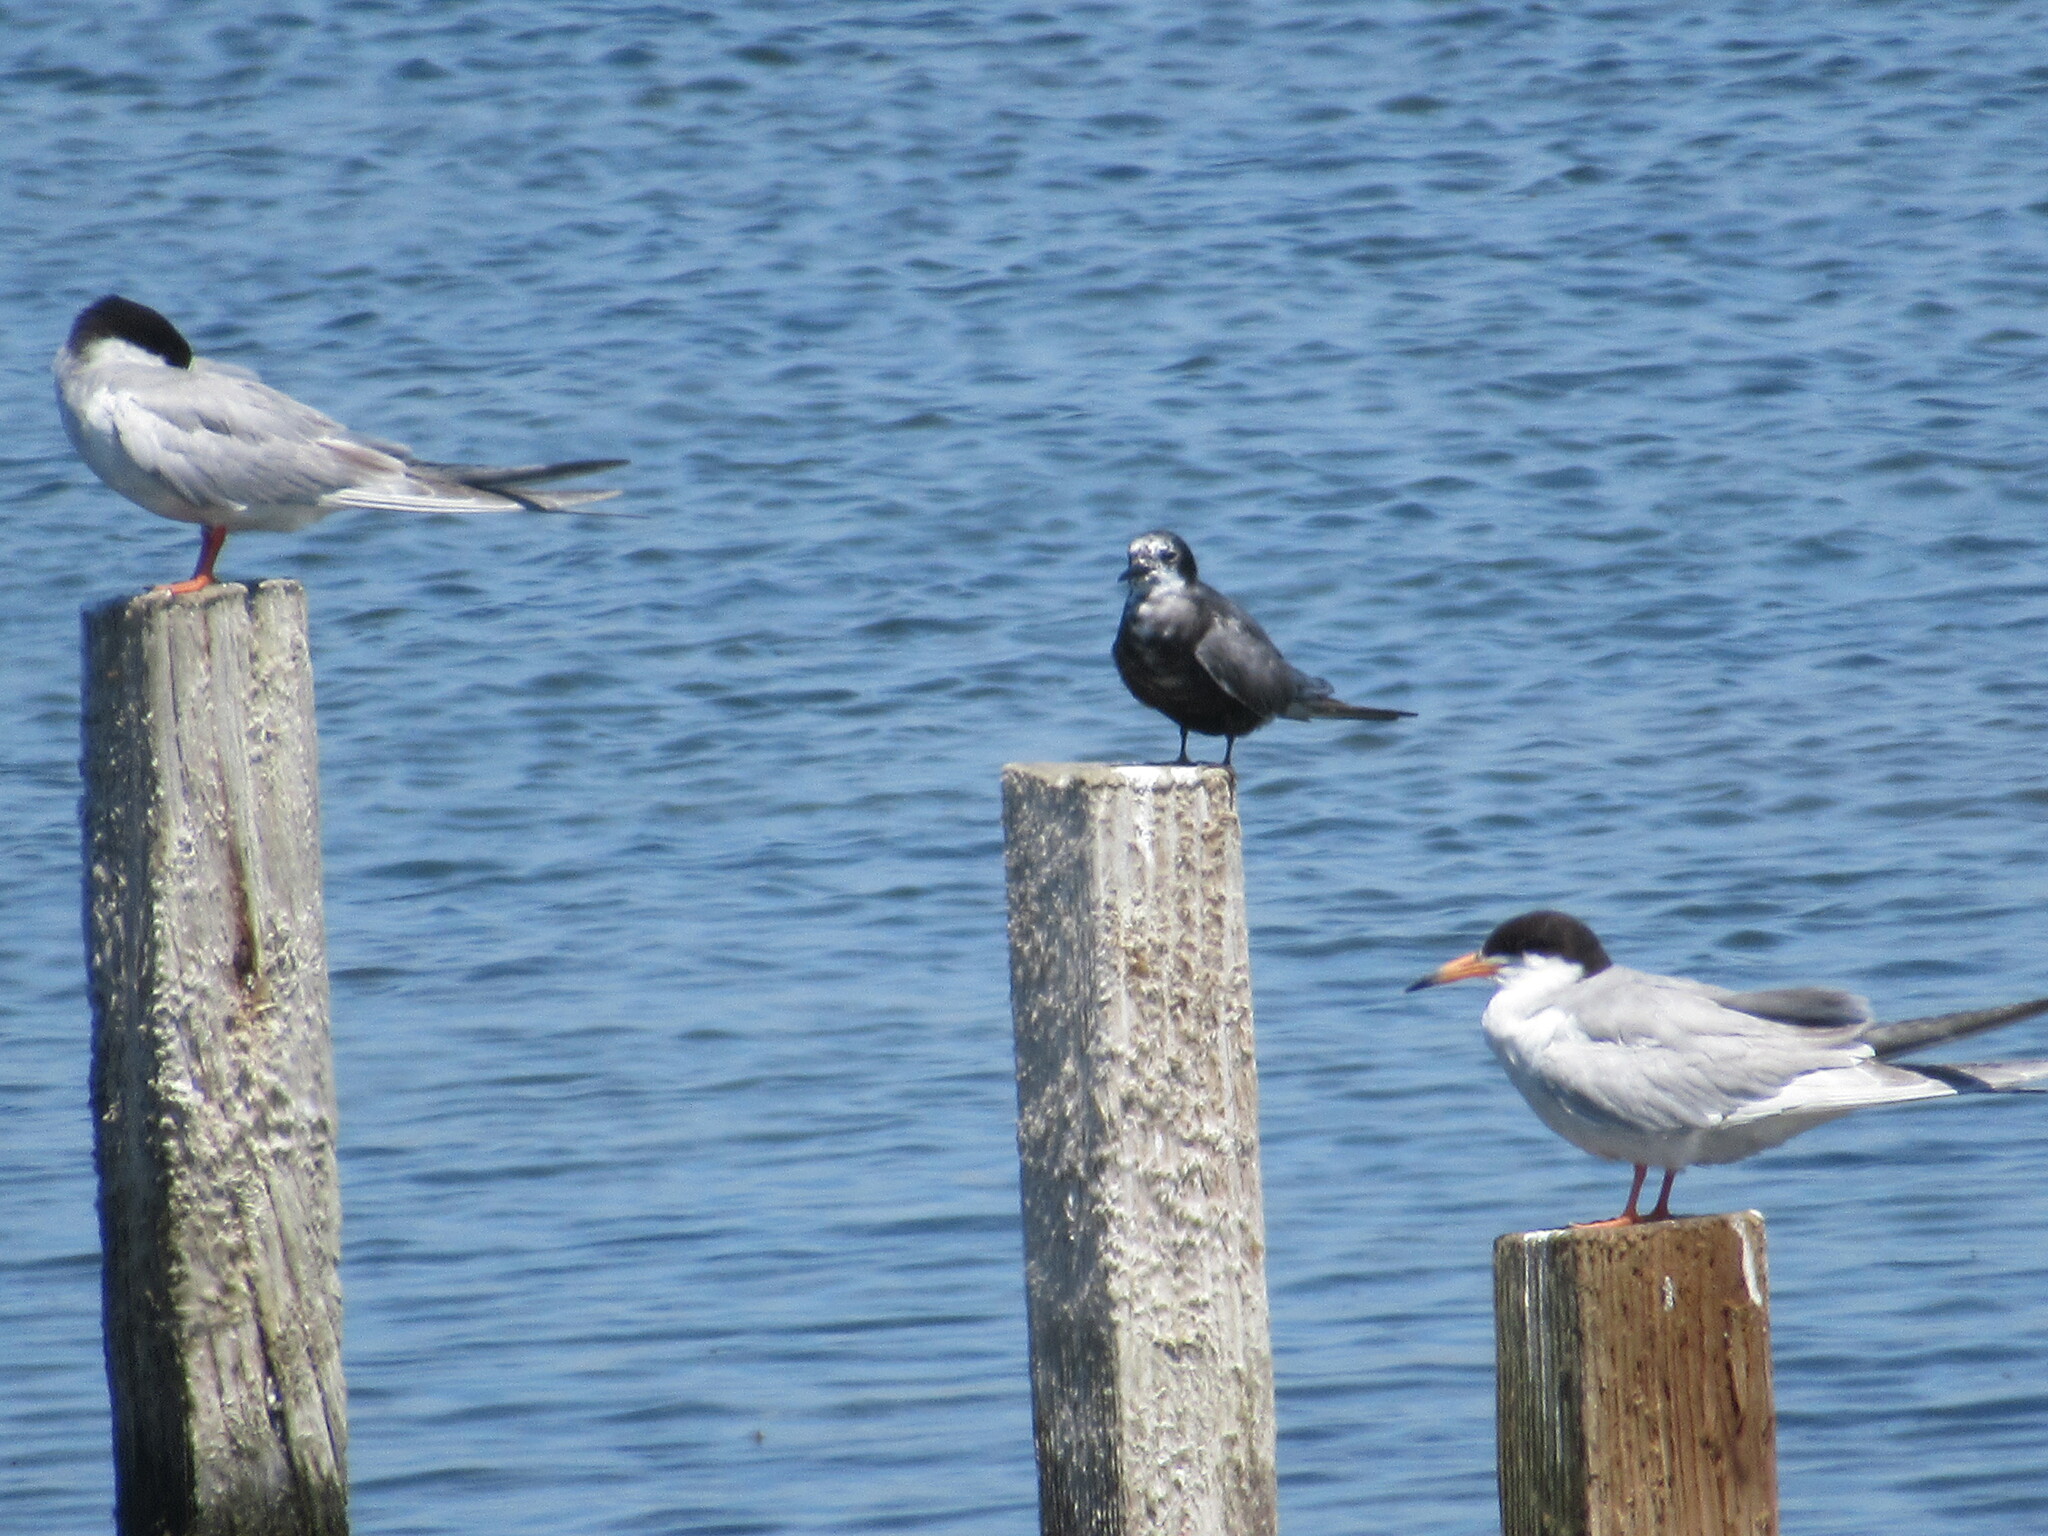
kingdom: Animalia
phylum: Chordata
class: Aves
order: Charadriiformes
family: Laridae
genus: Chlidonias
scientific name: Chlidonias niger
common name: Black tern
